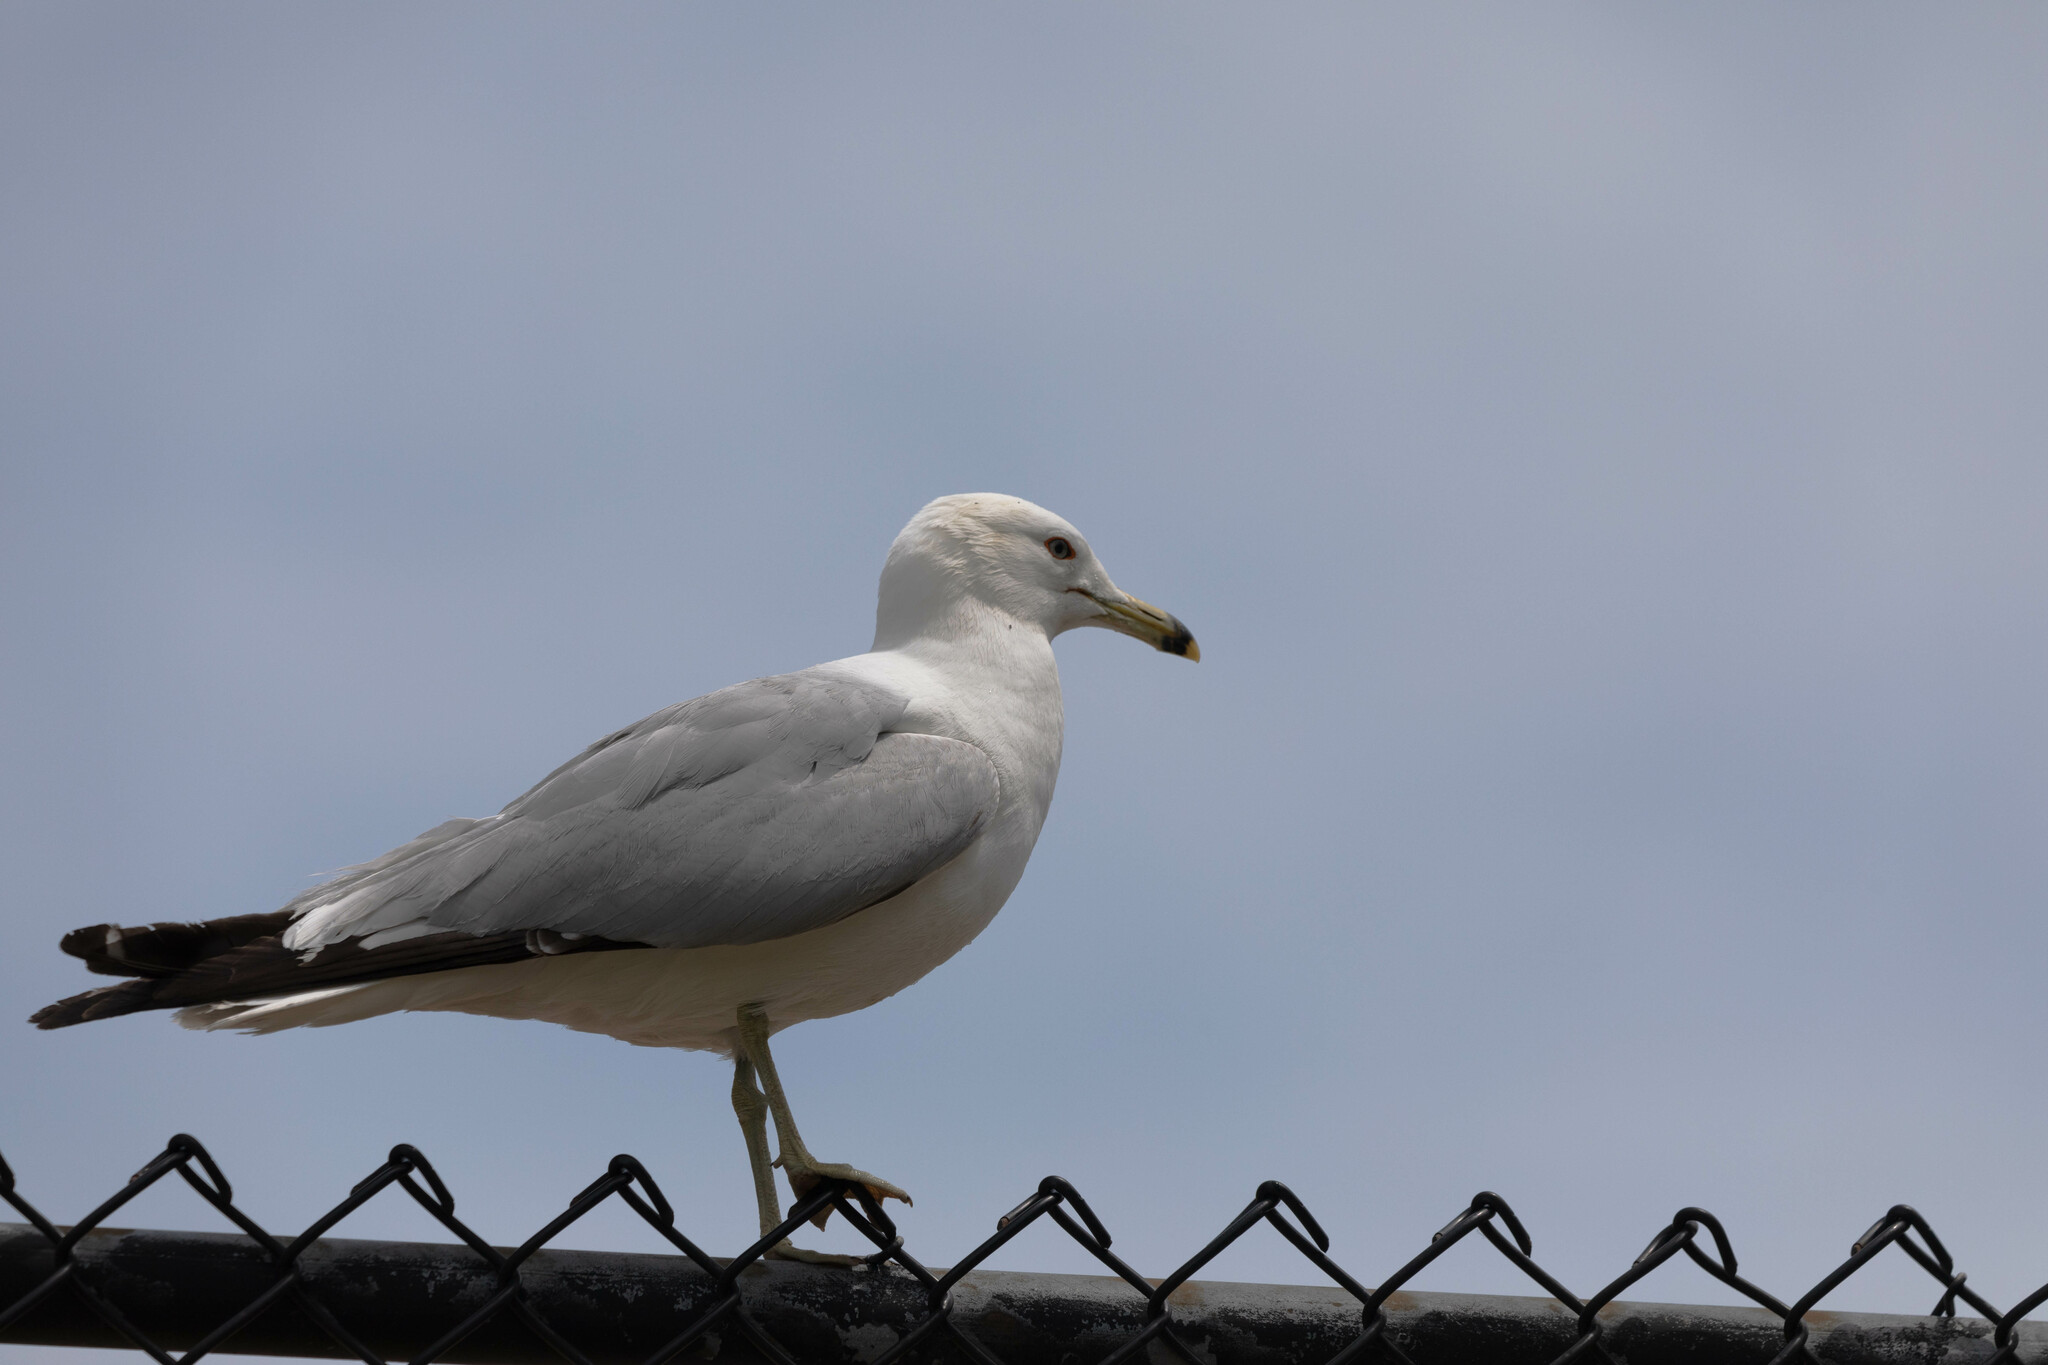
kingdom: Animalia
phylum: Chordata
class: Aves
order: Charadriiformes
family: Laridae
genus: Larus
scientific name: Larus delawarensis
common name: Ring-billed gull
